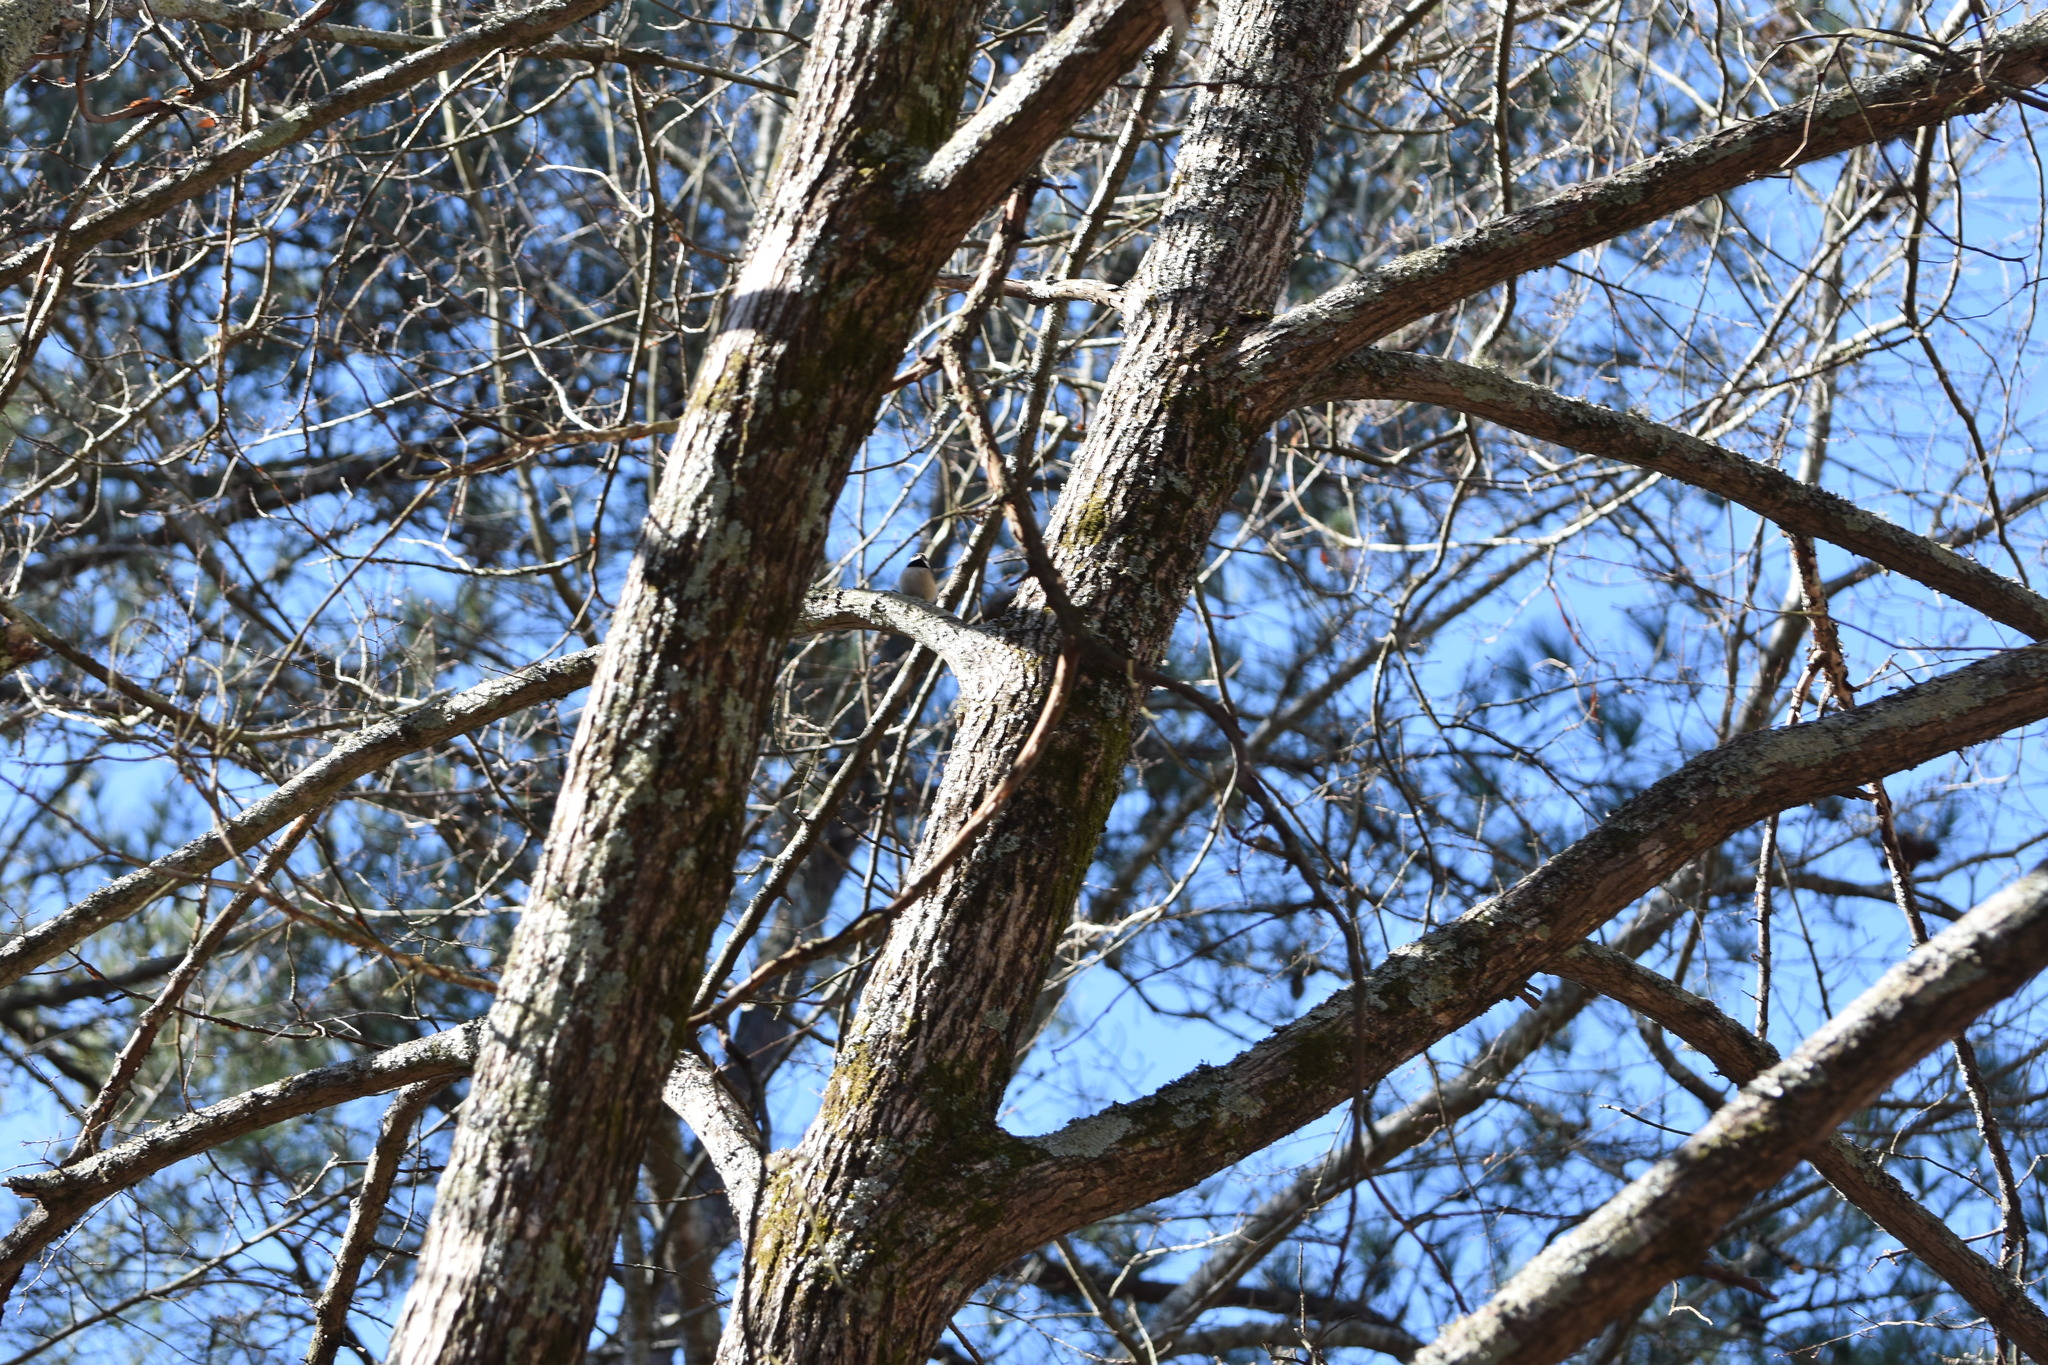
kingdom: Animalia
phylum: Chordata
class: Aves
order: Passeriformes
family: Paridae
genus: Poecile
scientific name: Poecile carolinensis
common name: Carolina chickadee
